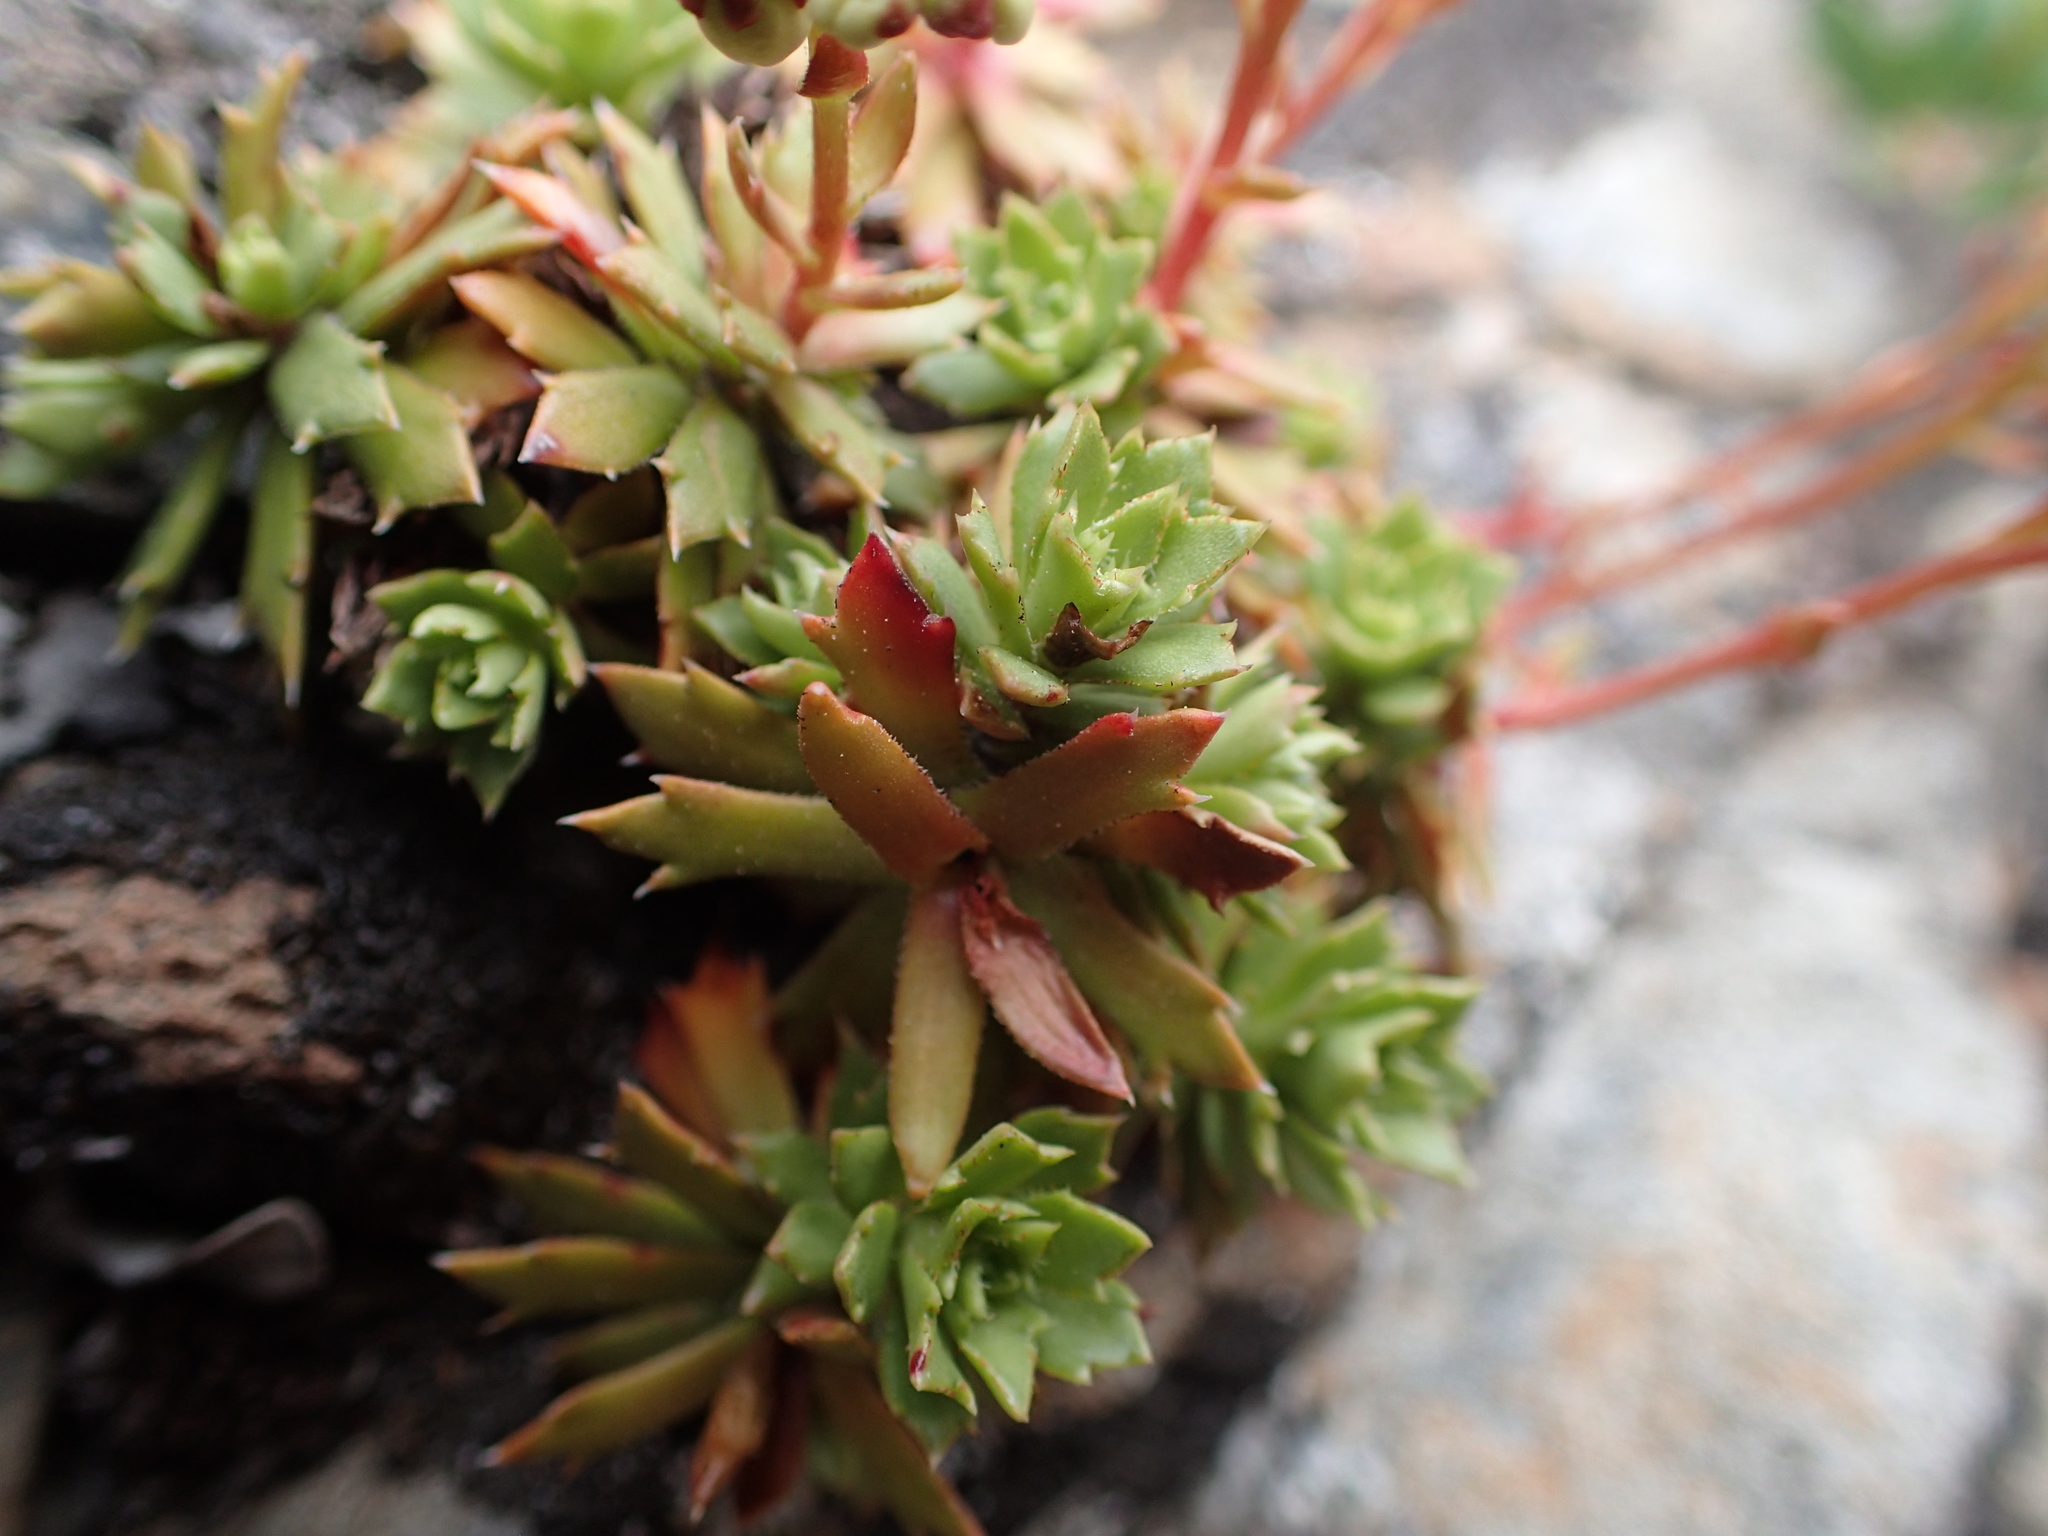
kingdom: Plantae
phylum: Tracheophyta
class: Magnoliopsida
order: Saxifragales
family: Saxifragaceae
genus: Saxifraga
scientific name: Saxifraga tricuspidata
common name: Prickly saxifrage
